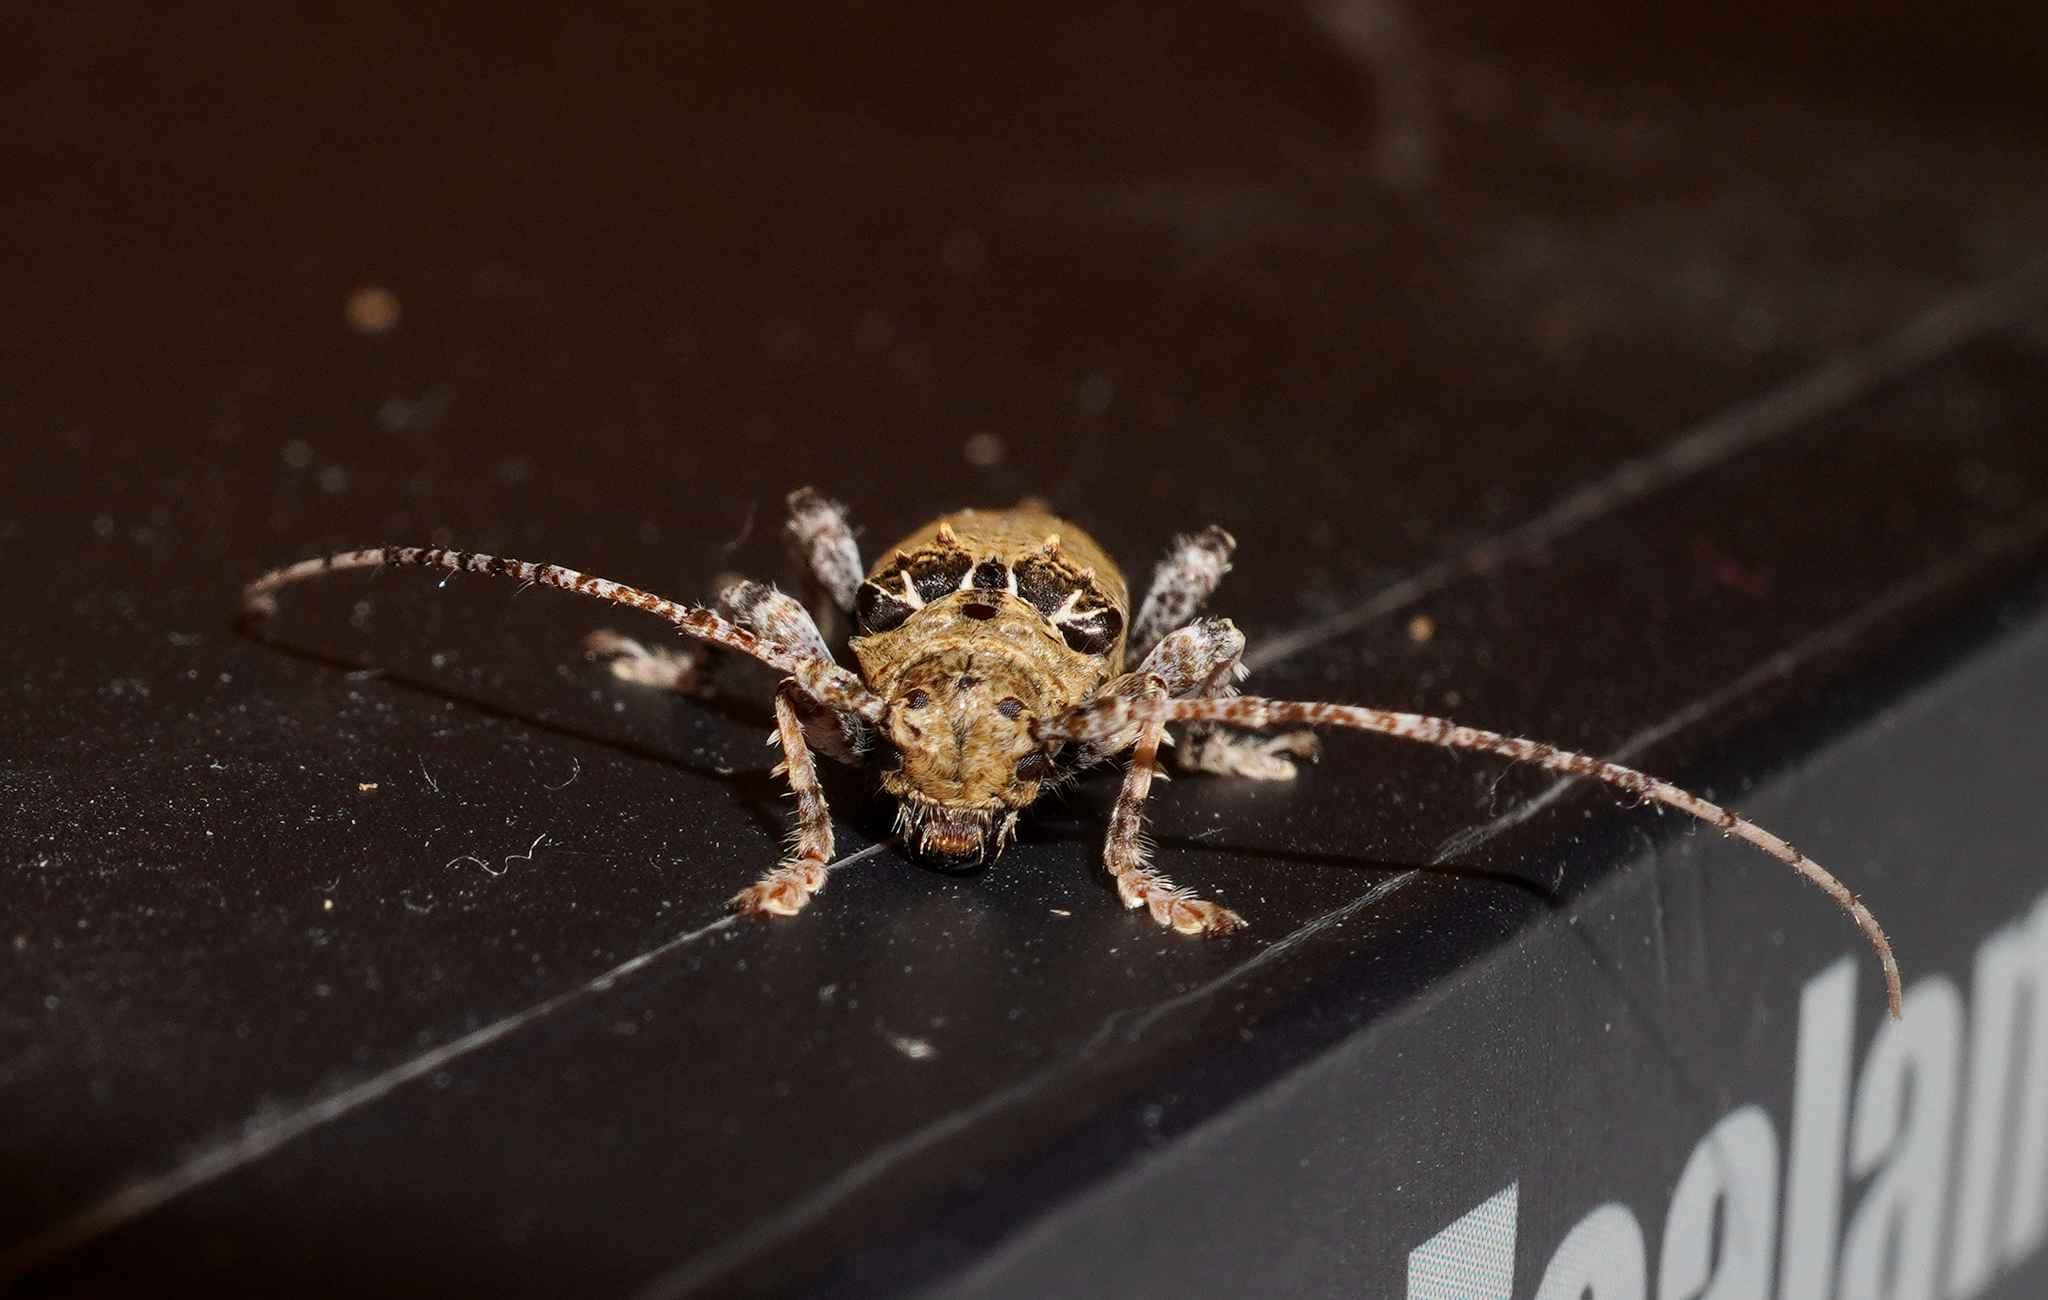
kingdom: Animalia
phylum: Arthropoda
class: Insecta
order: Coleoptera
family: Cerambycidae
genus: Tetrorea
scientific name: Tetrorea cilipes
